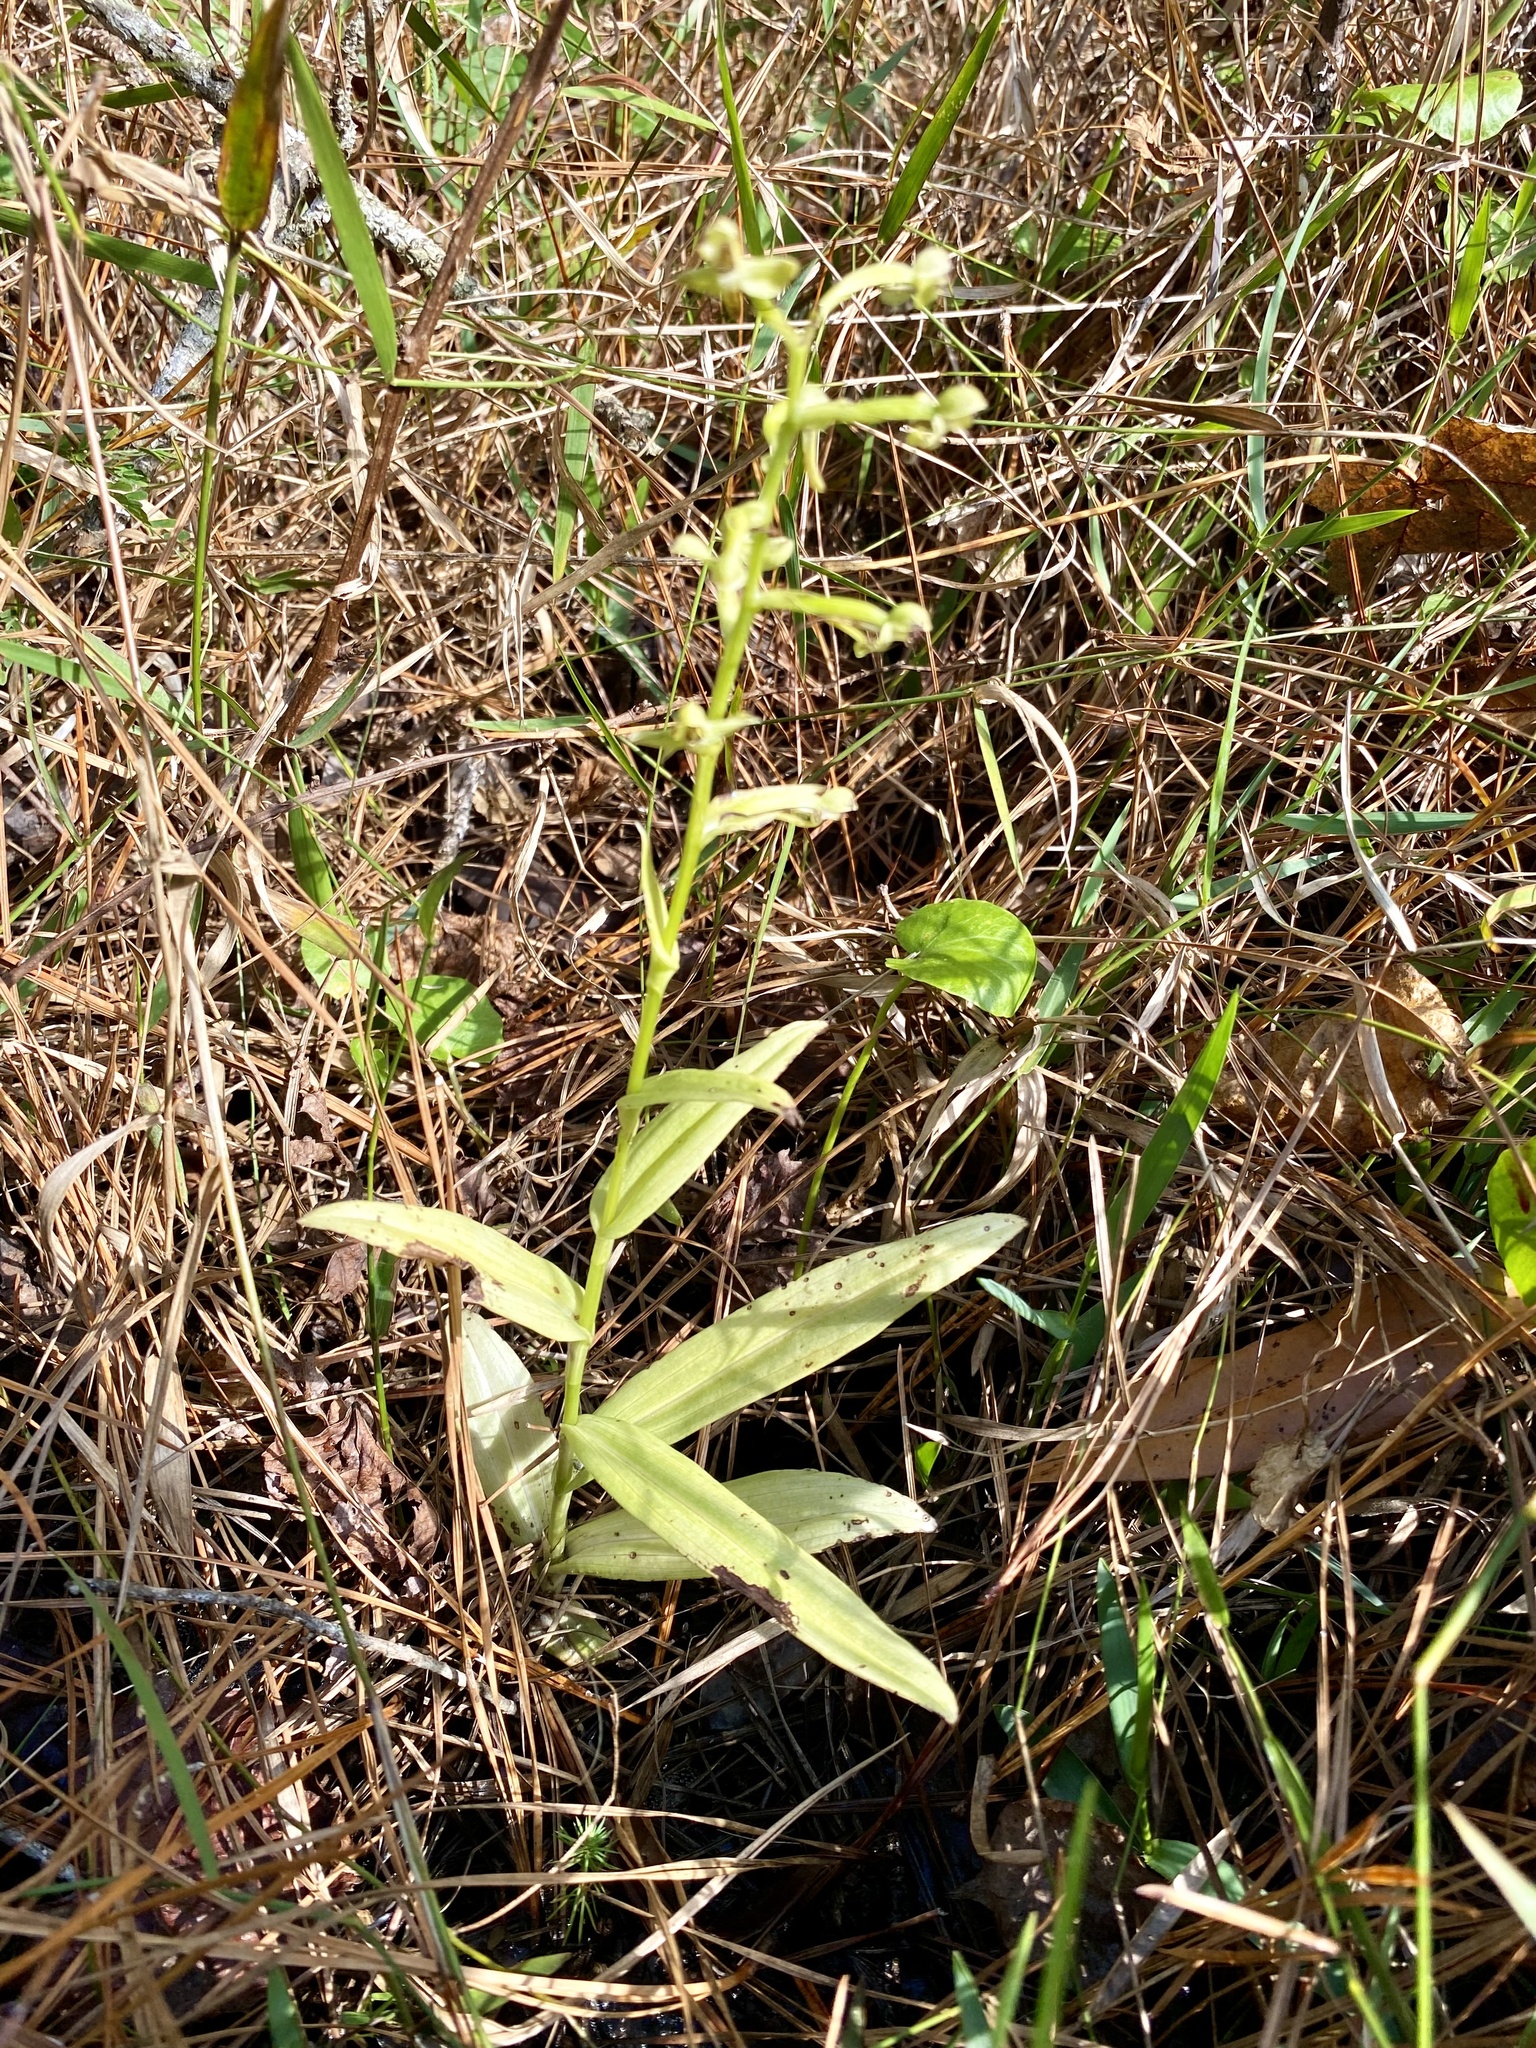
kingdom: Plantae
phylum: Tracheophyta
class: Liliopsida
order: Asparagales
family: Orchidaceae
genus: Habenaria
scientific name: Habenaria floribunda
